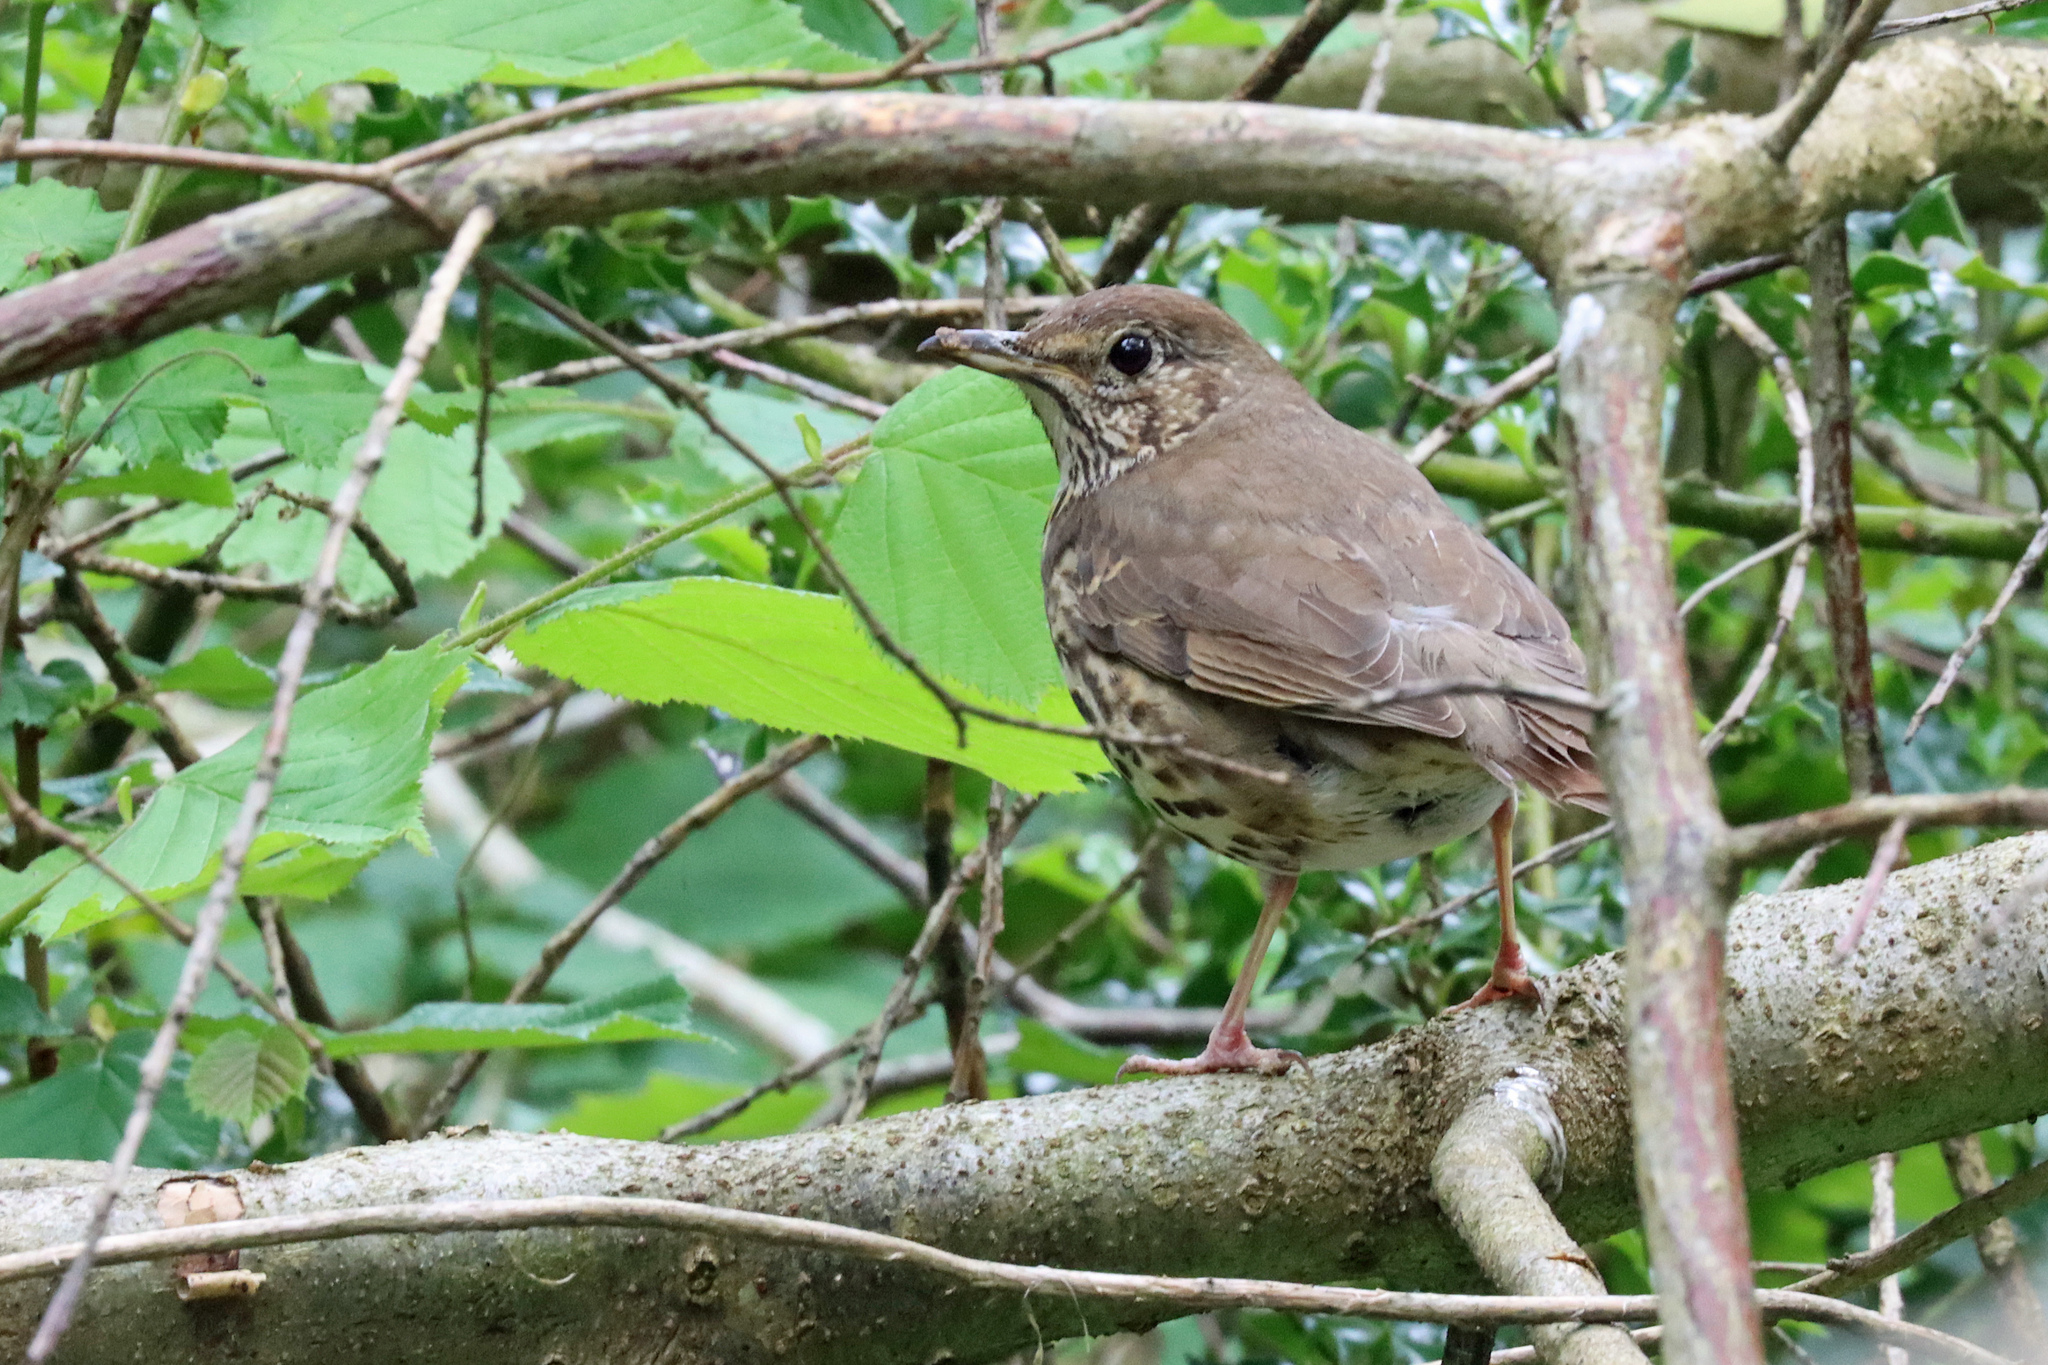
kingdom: Animalia
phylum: Chordata
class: Aves
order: Passeriformes
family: Turdidae
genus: Turdus
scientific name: Turdus philomelos
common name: Song thrush
